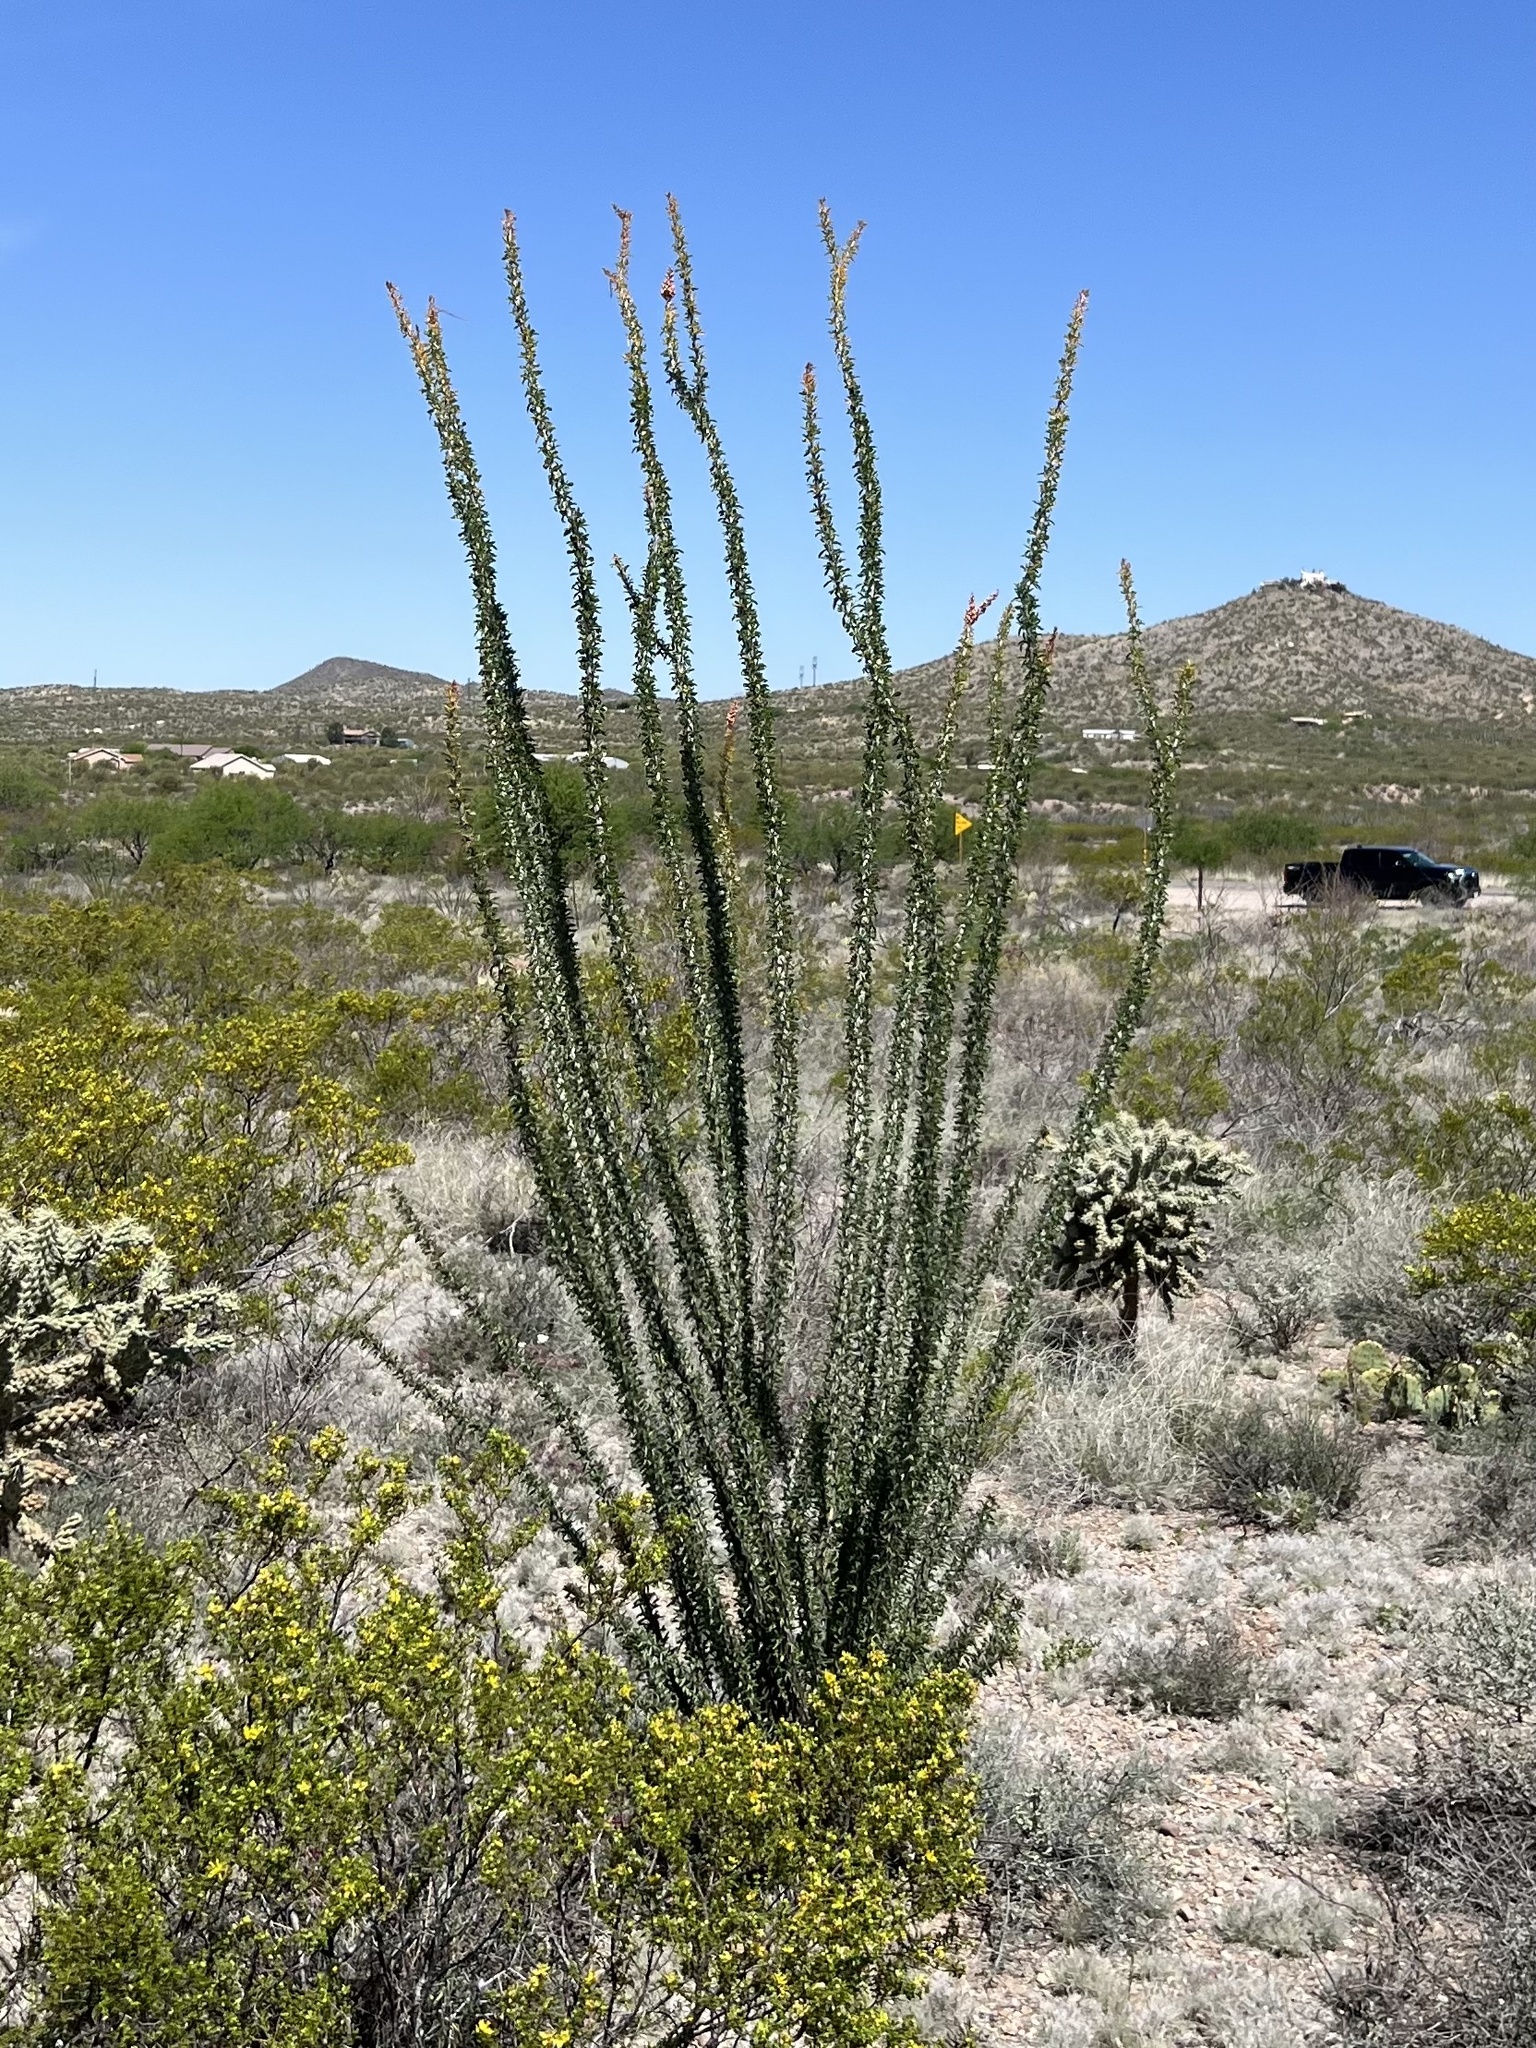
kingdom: Plantae
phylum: Tracheophyta
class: Magnoliopsida
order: Ericales
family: Fouquieriaceae
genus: Fouquieria
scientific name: Fouquieria splendens
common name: Vine-cactus
